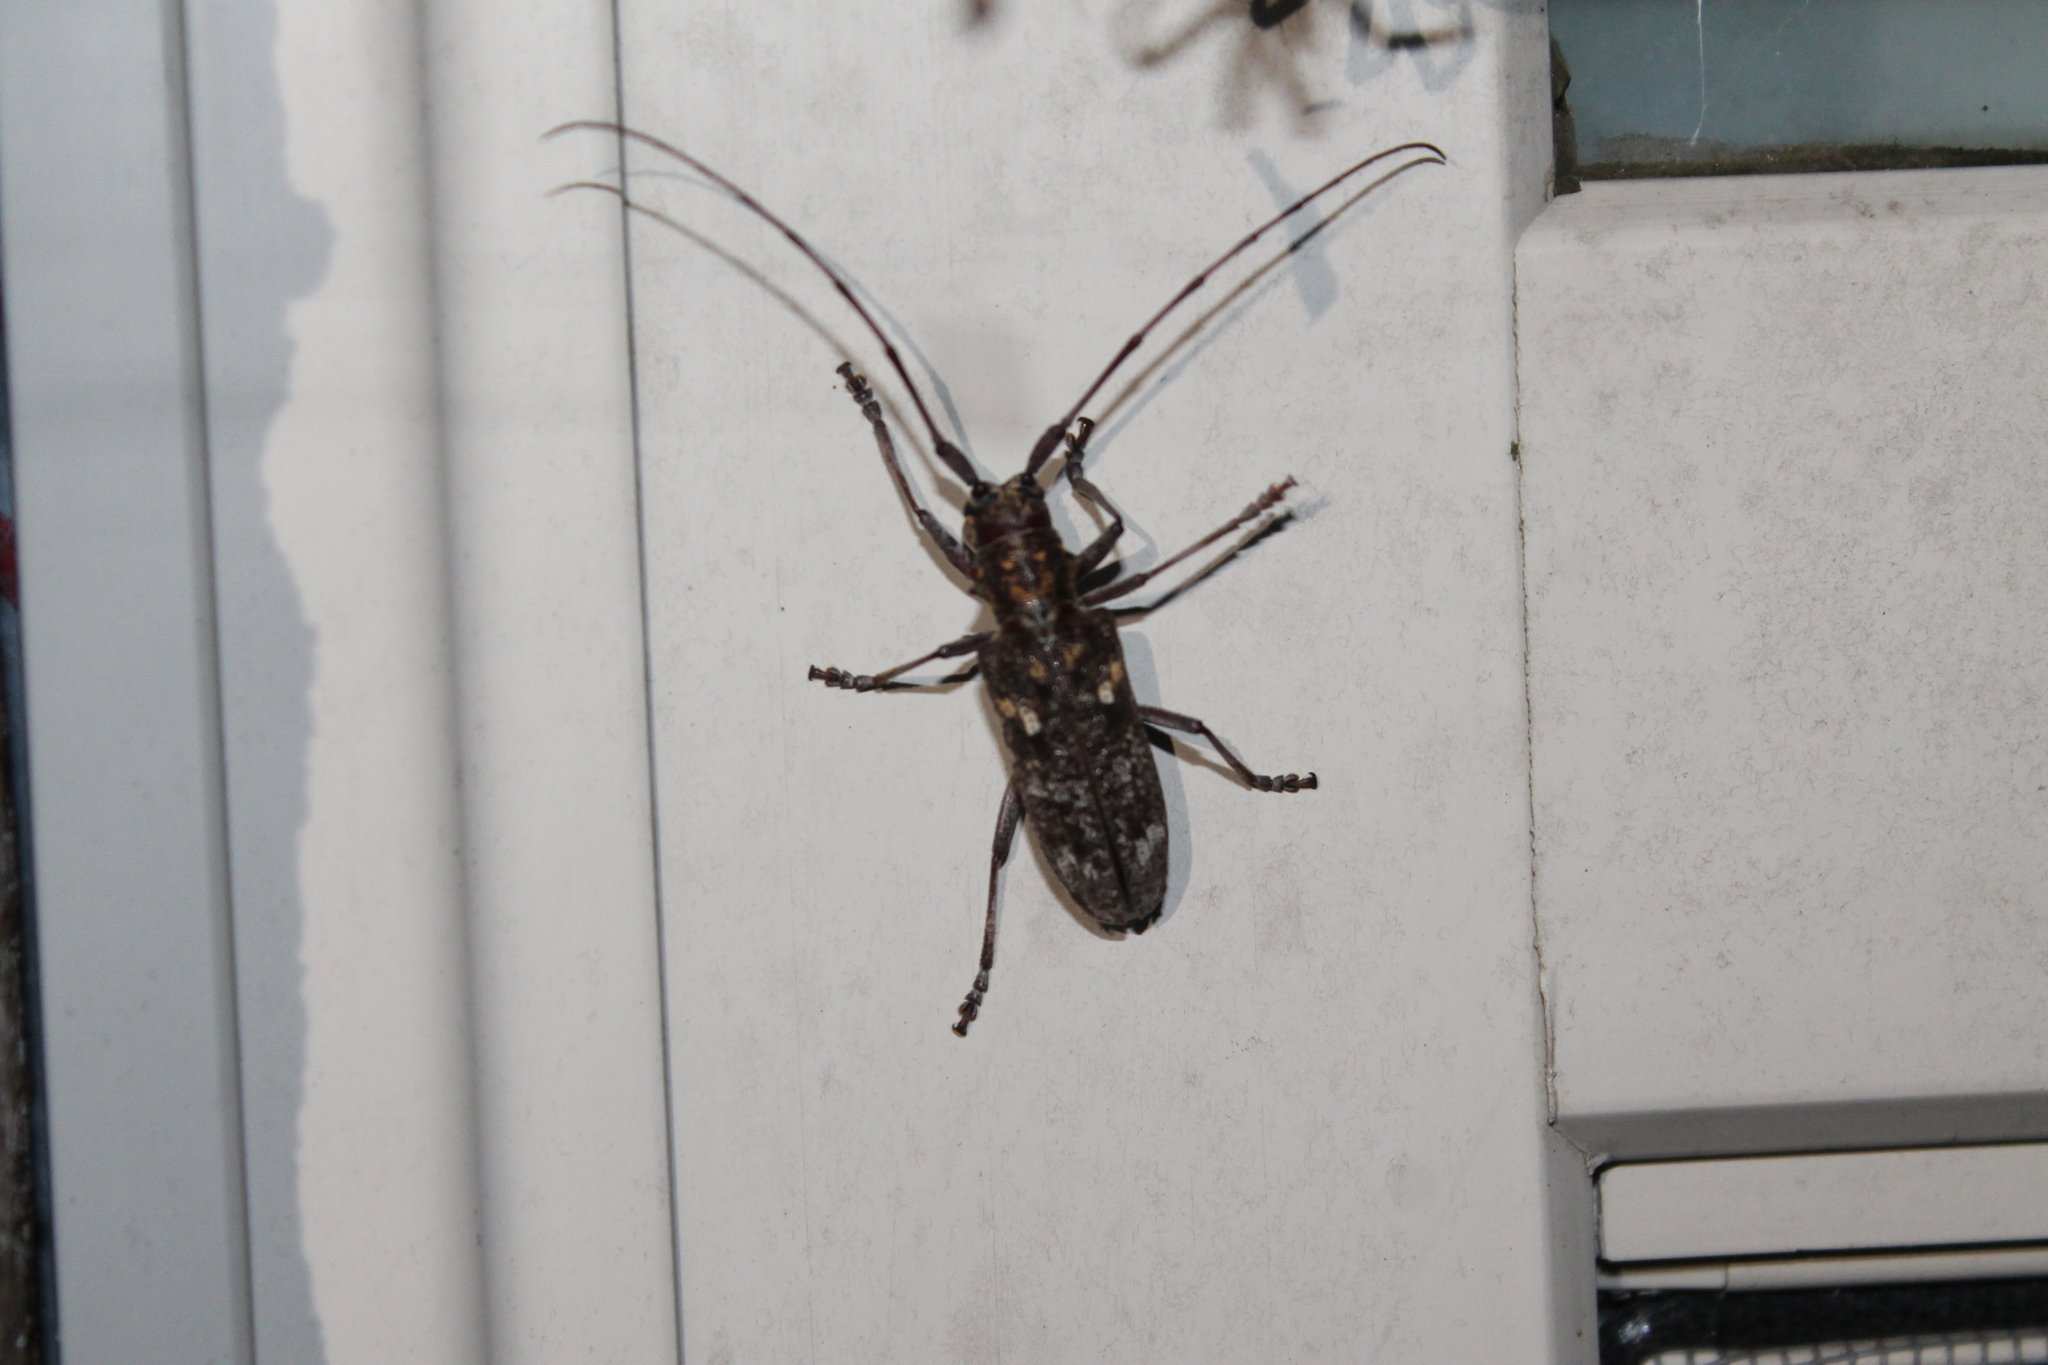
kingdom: Animalia
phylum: Arthropoda
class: Insecta
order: Coleoptera
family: Cerambycidae
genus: Monochamus
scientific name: Monochamus carolinensis
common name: Carolina pine sawyer
